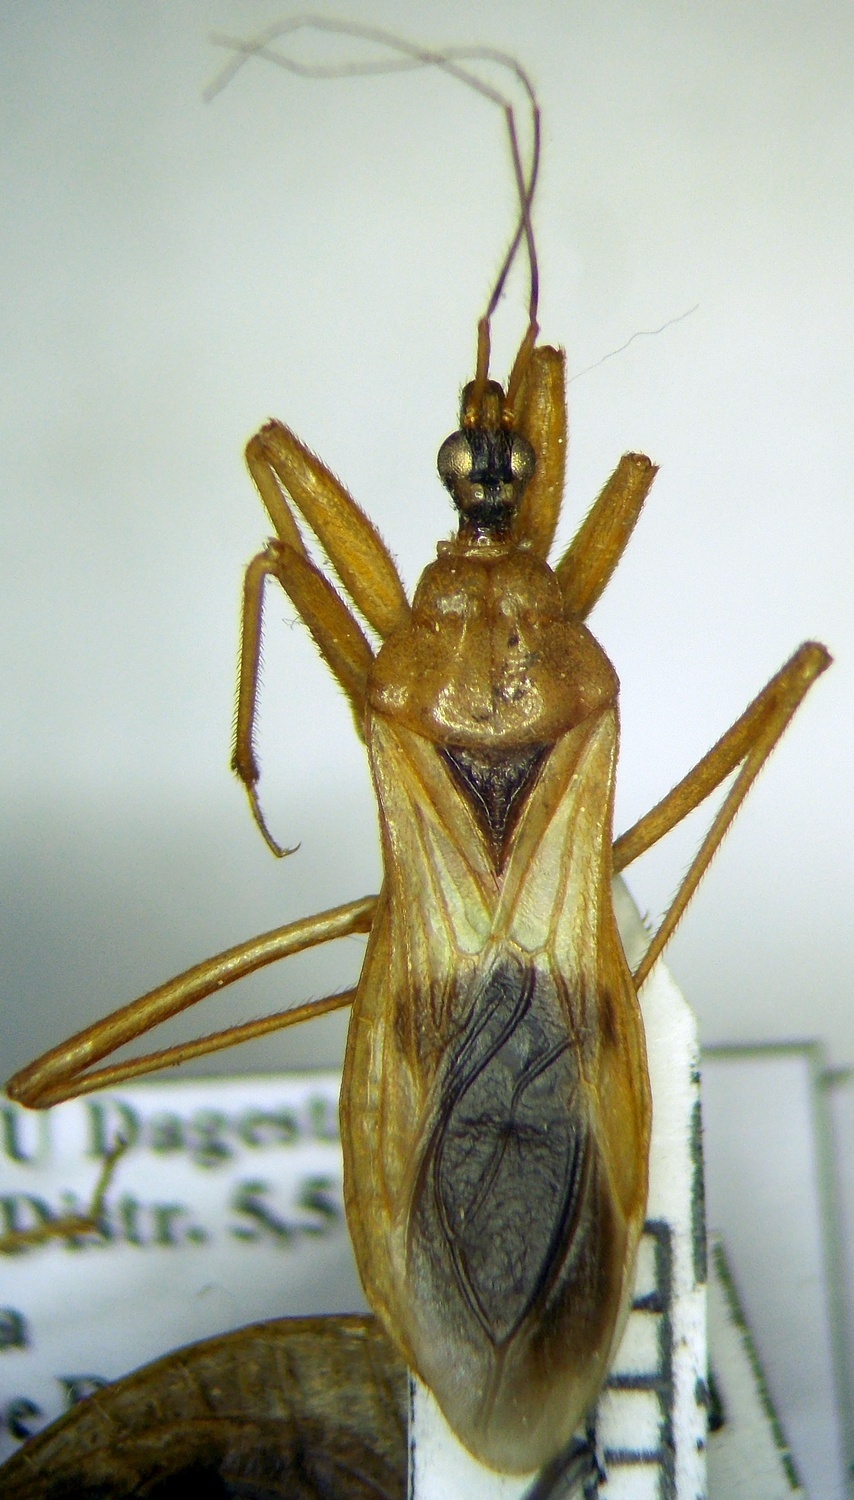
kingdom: Animalia
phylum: Arthropoda
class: Insecta
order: Hemiptera
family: Reduviidae
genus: Reduvius
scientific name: Reduvius testaceus
